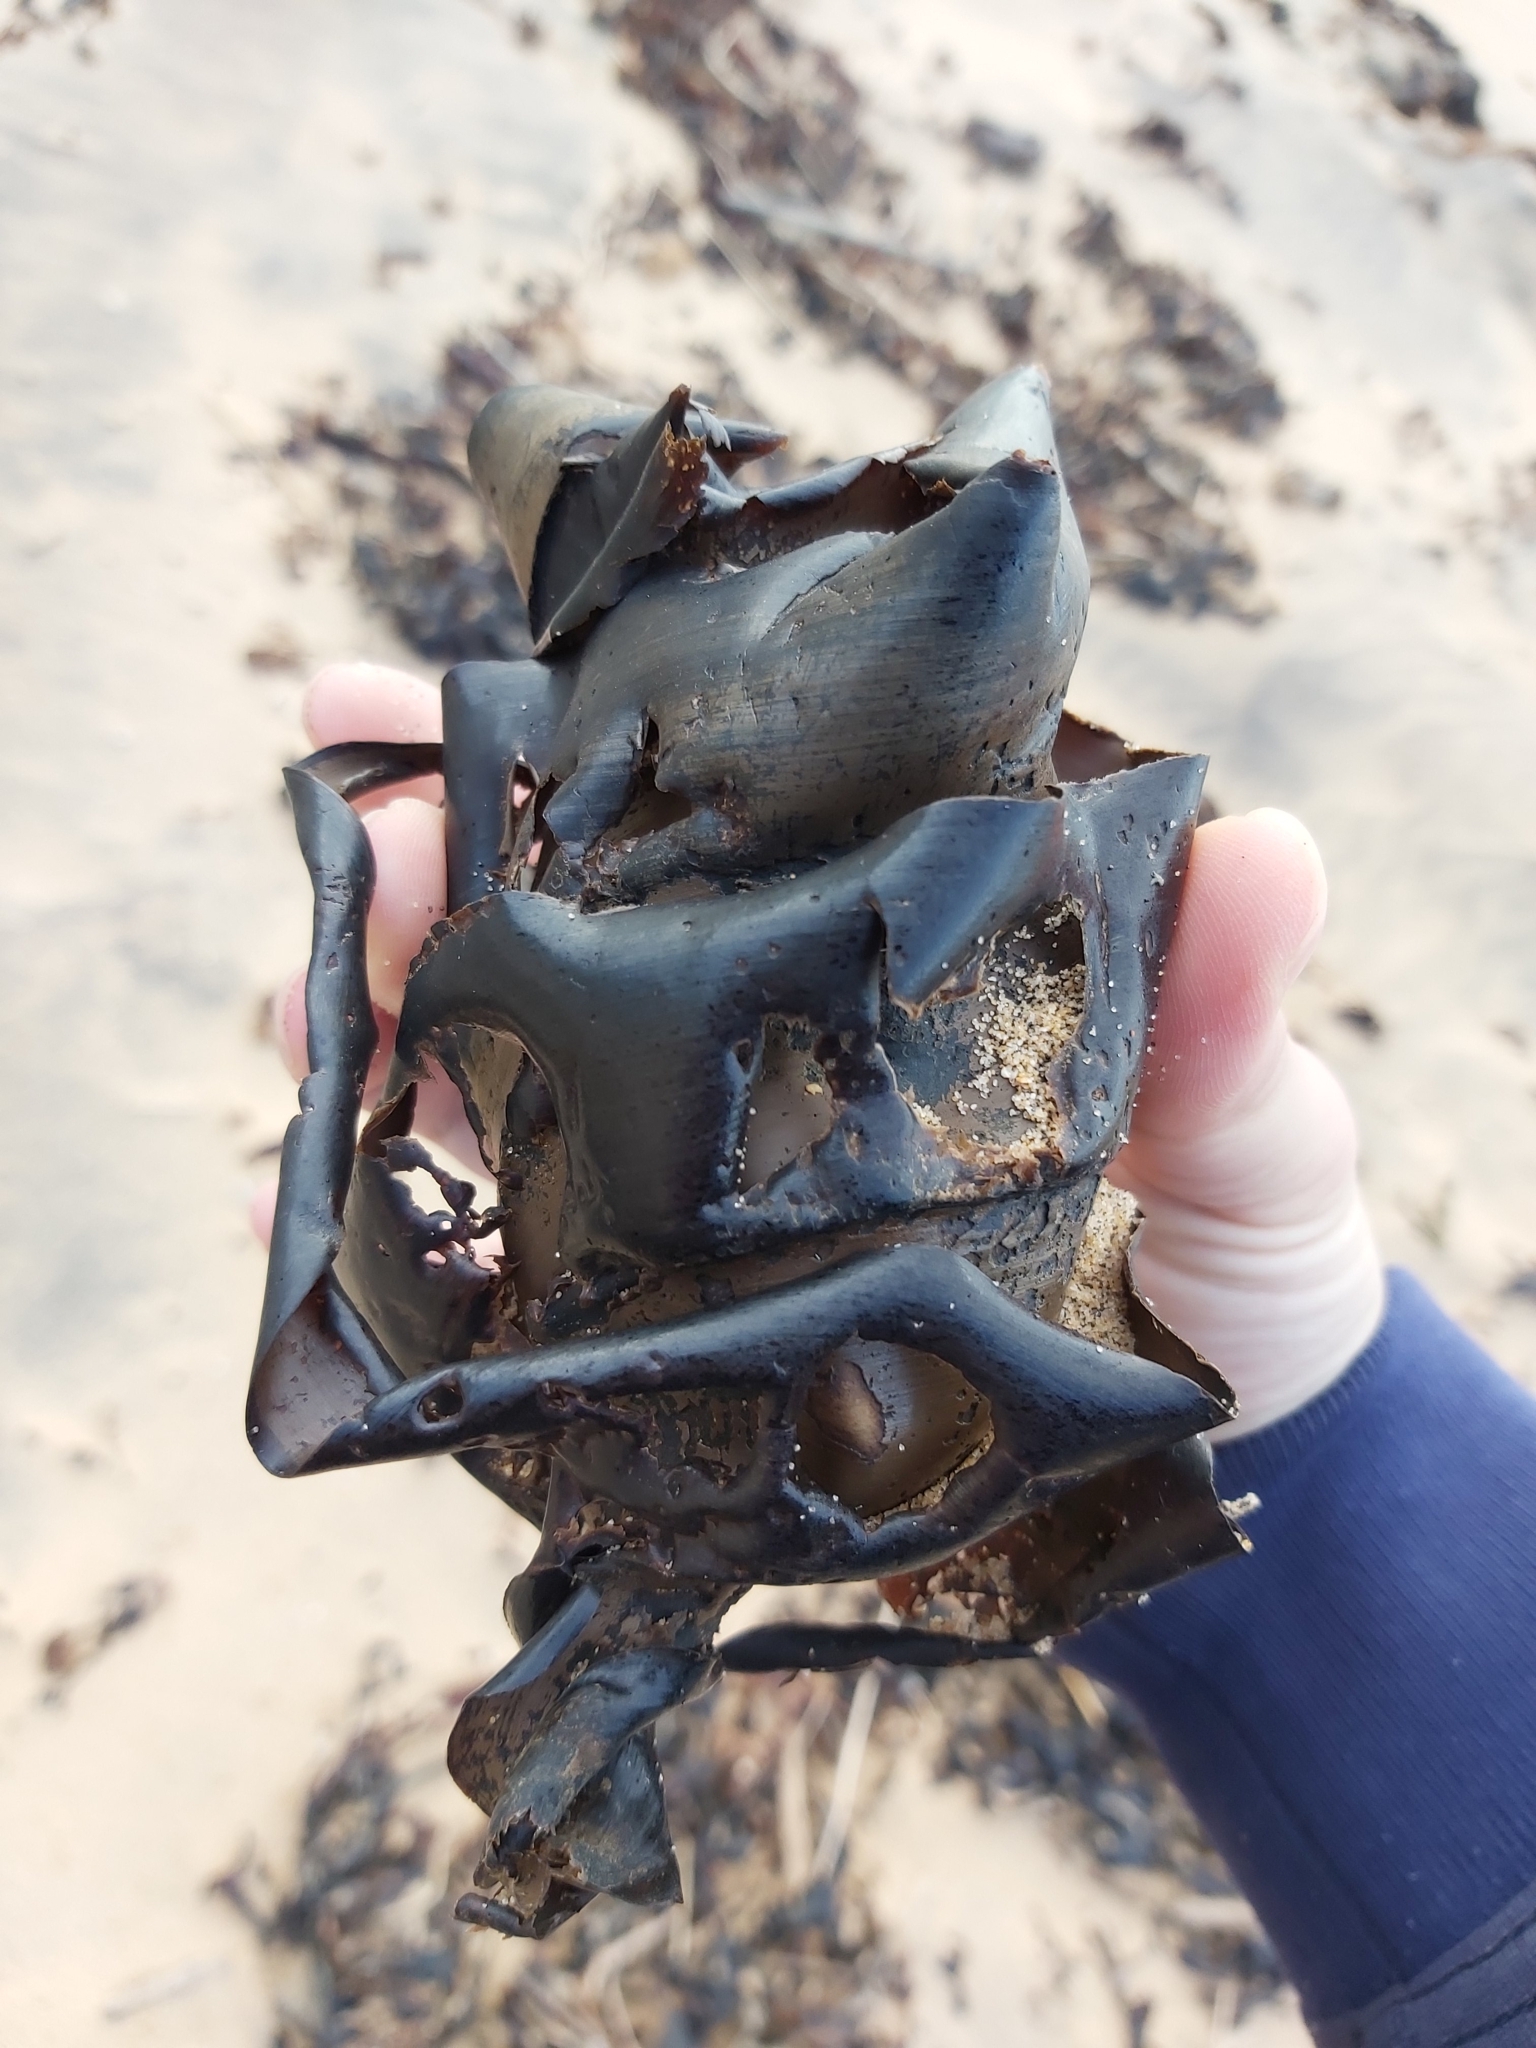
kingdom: Animalia
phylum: Chordata
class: Elasmobranchii
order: Heterodontiformes
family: Heterodontidae
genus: Heterodontus
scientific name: Heterodontus portusjacksoni
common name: Port jackson shark
